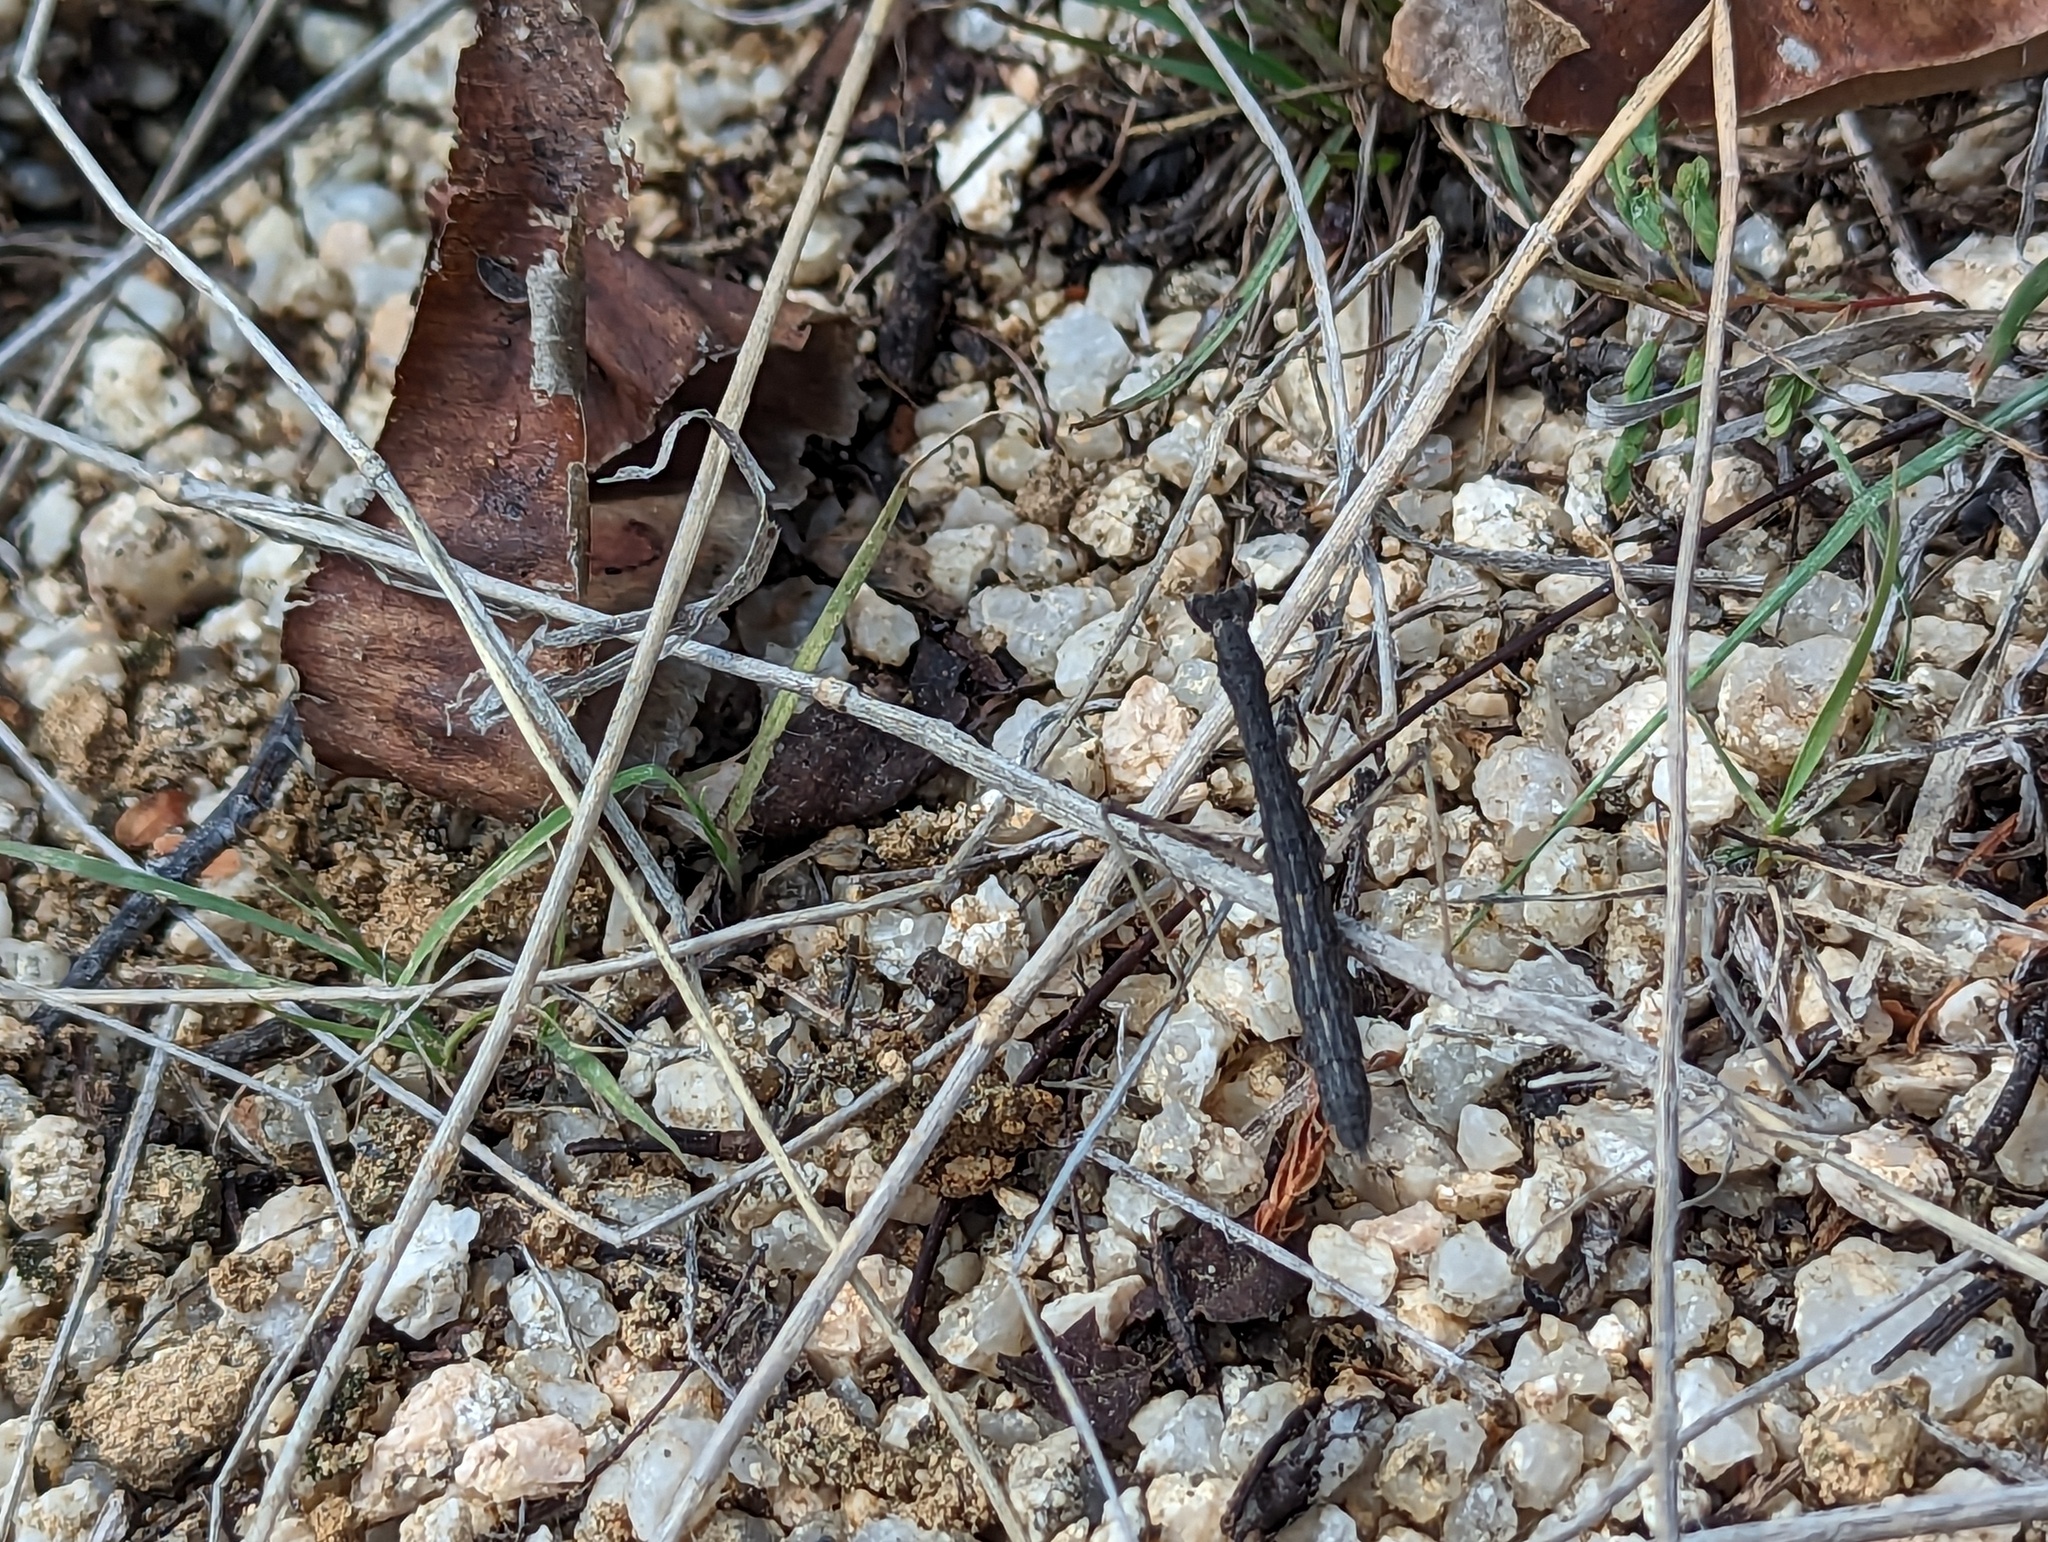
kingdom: Animalia
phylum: Arthropoda
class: Insecta
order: Mantodea
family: Amelidae
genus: Yersiniops
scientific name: Yersiniops newboldi
